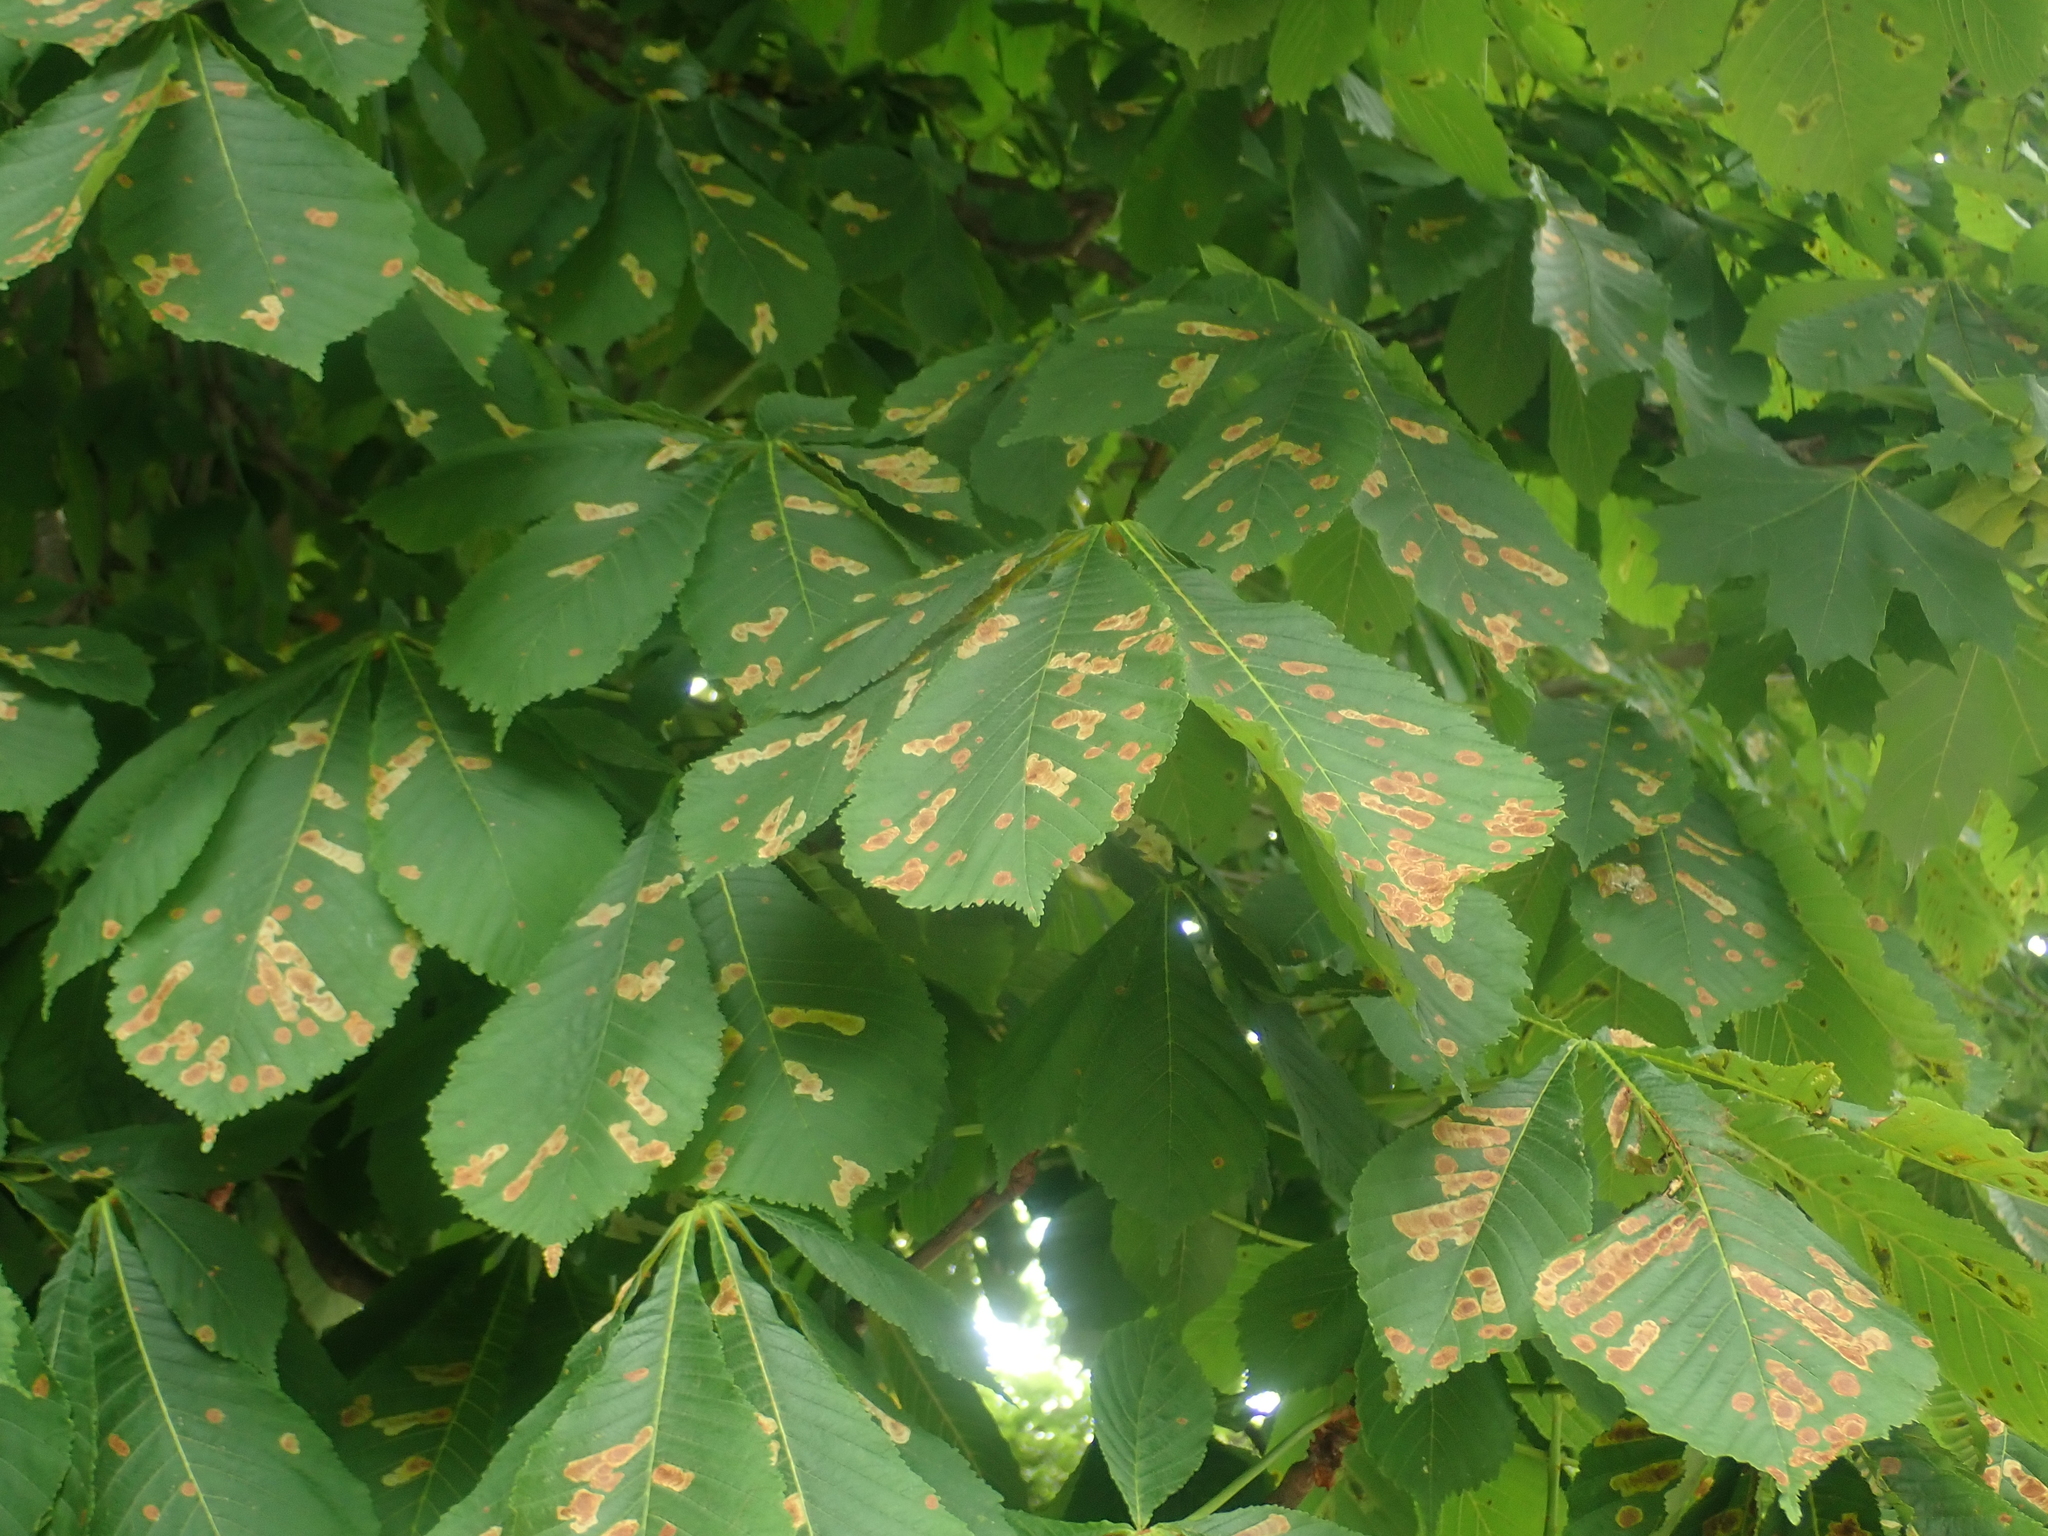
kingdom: Animalia
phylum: Arthropoda
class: Insecta
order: Lepidoptera
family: Gracillariidae
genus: Cameraria
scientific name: Cameraria ohridella
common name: Horse-chestnut leaf-miner
